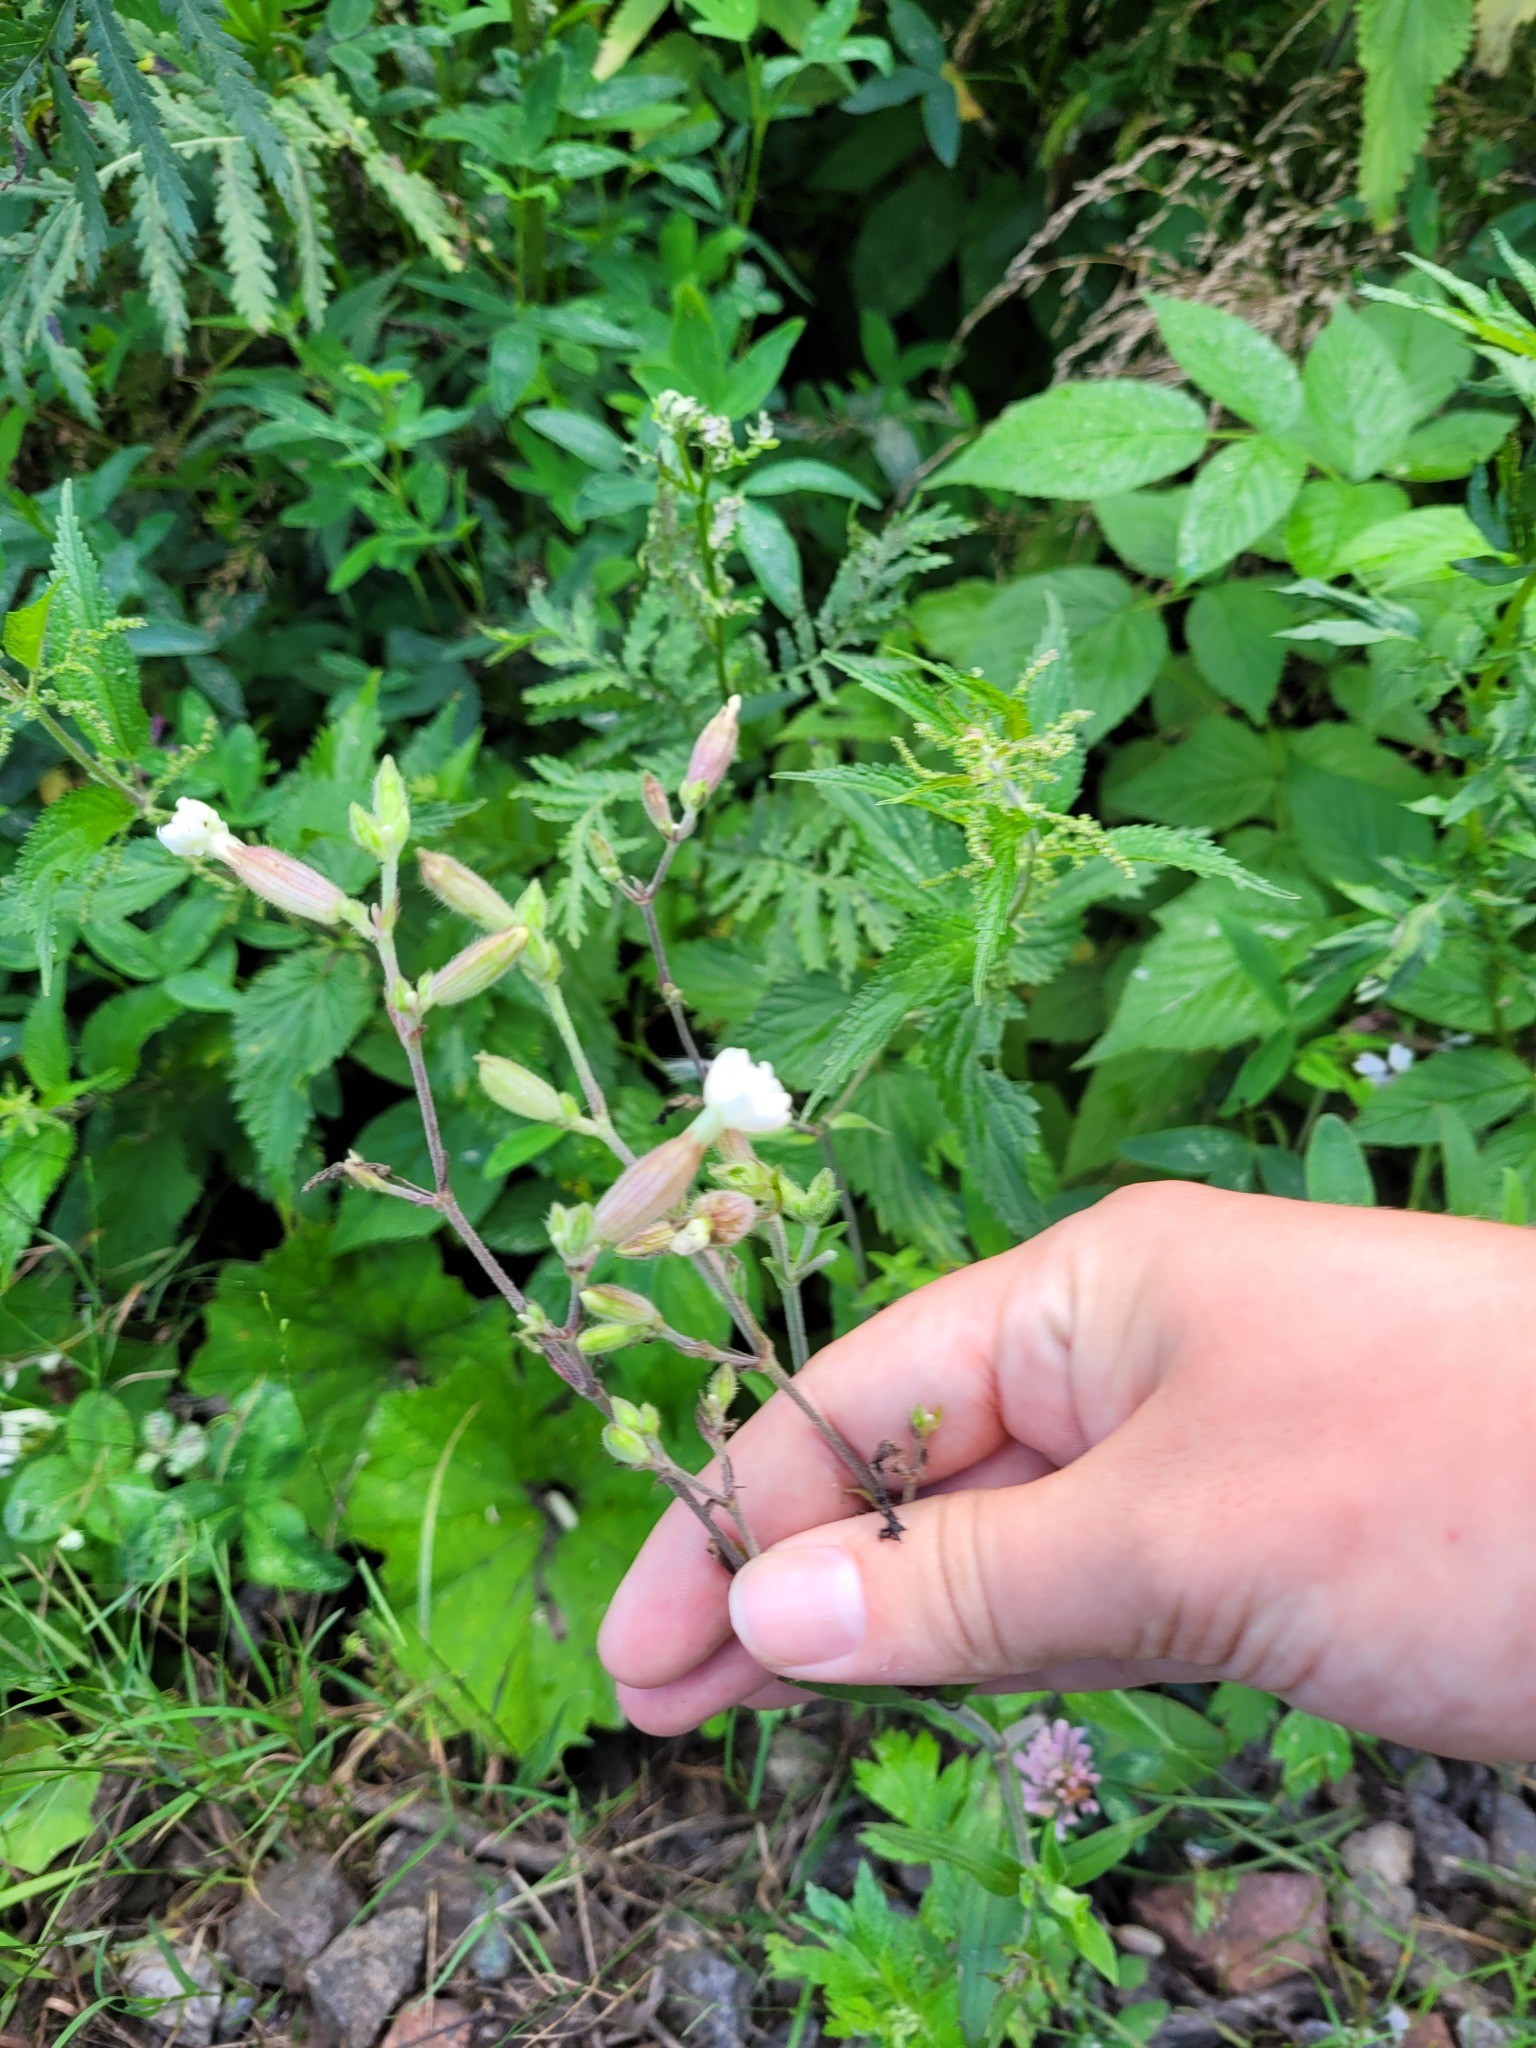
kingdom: Plantae
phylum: Tracheophyta
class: Magnoliopsida
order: Caryophyllales
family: Caryophyllaceae
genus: Silene
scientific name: Silene latifolia
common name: White campion
